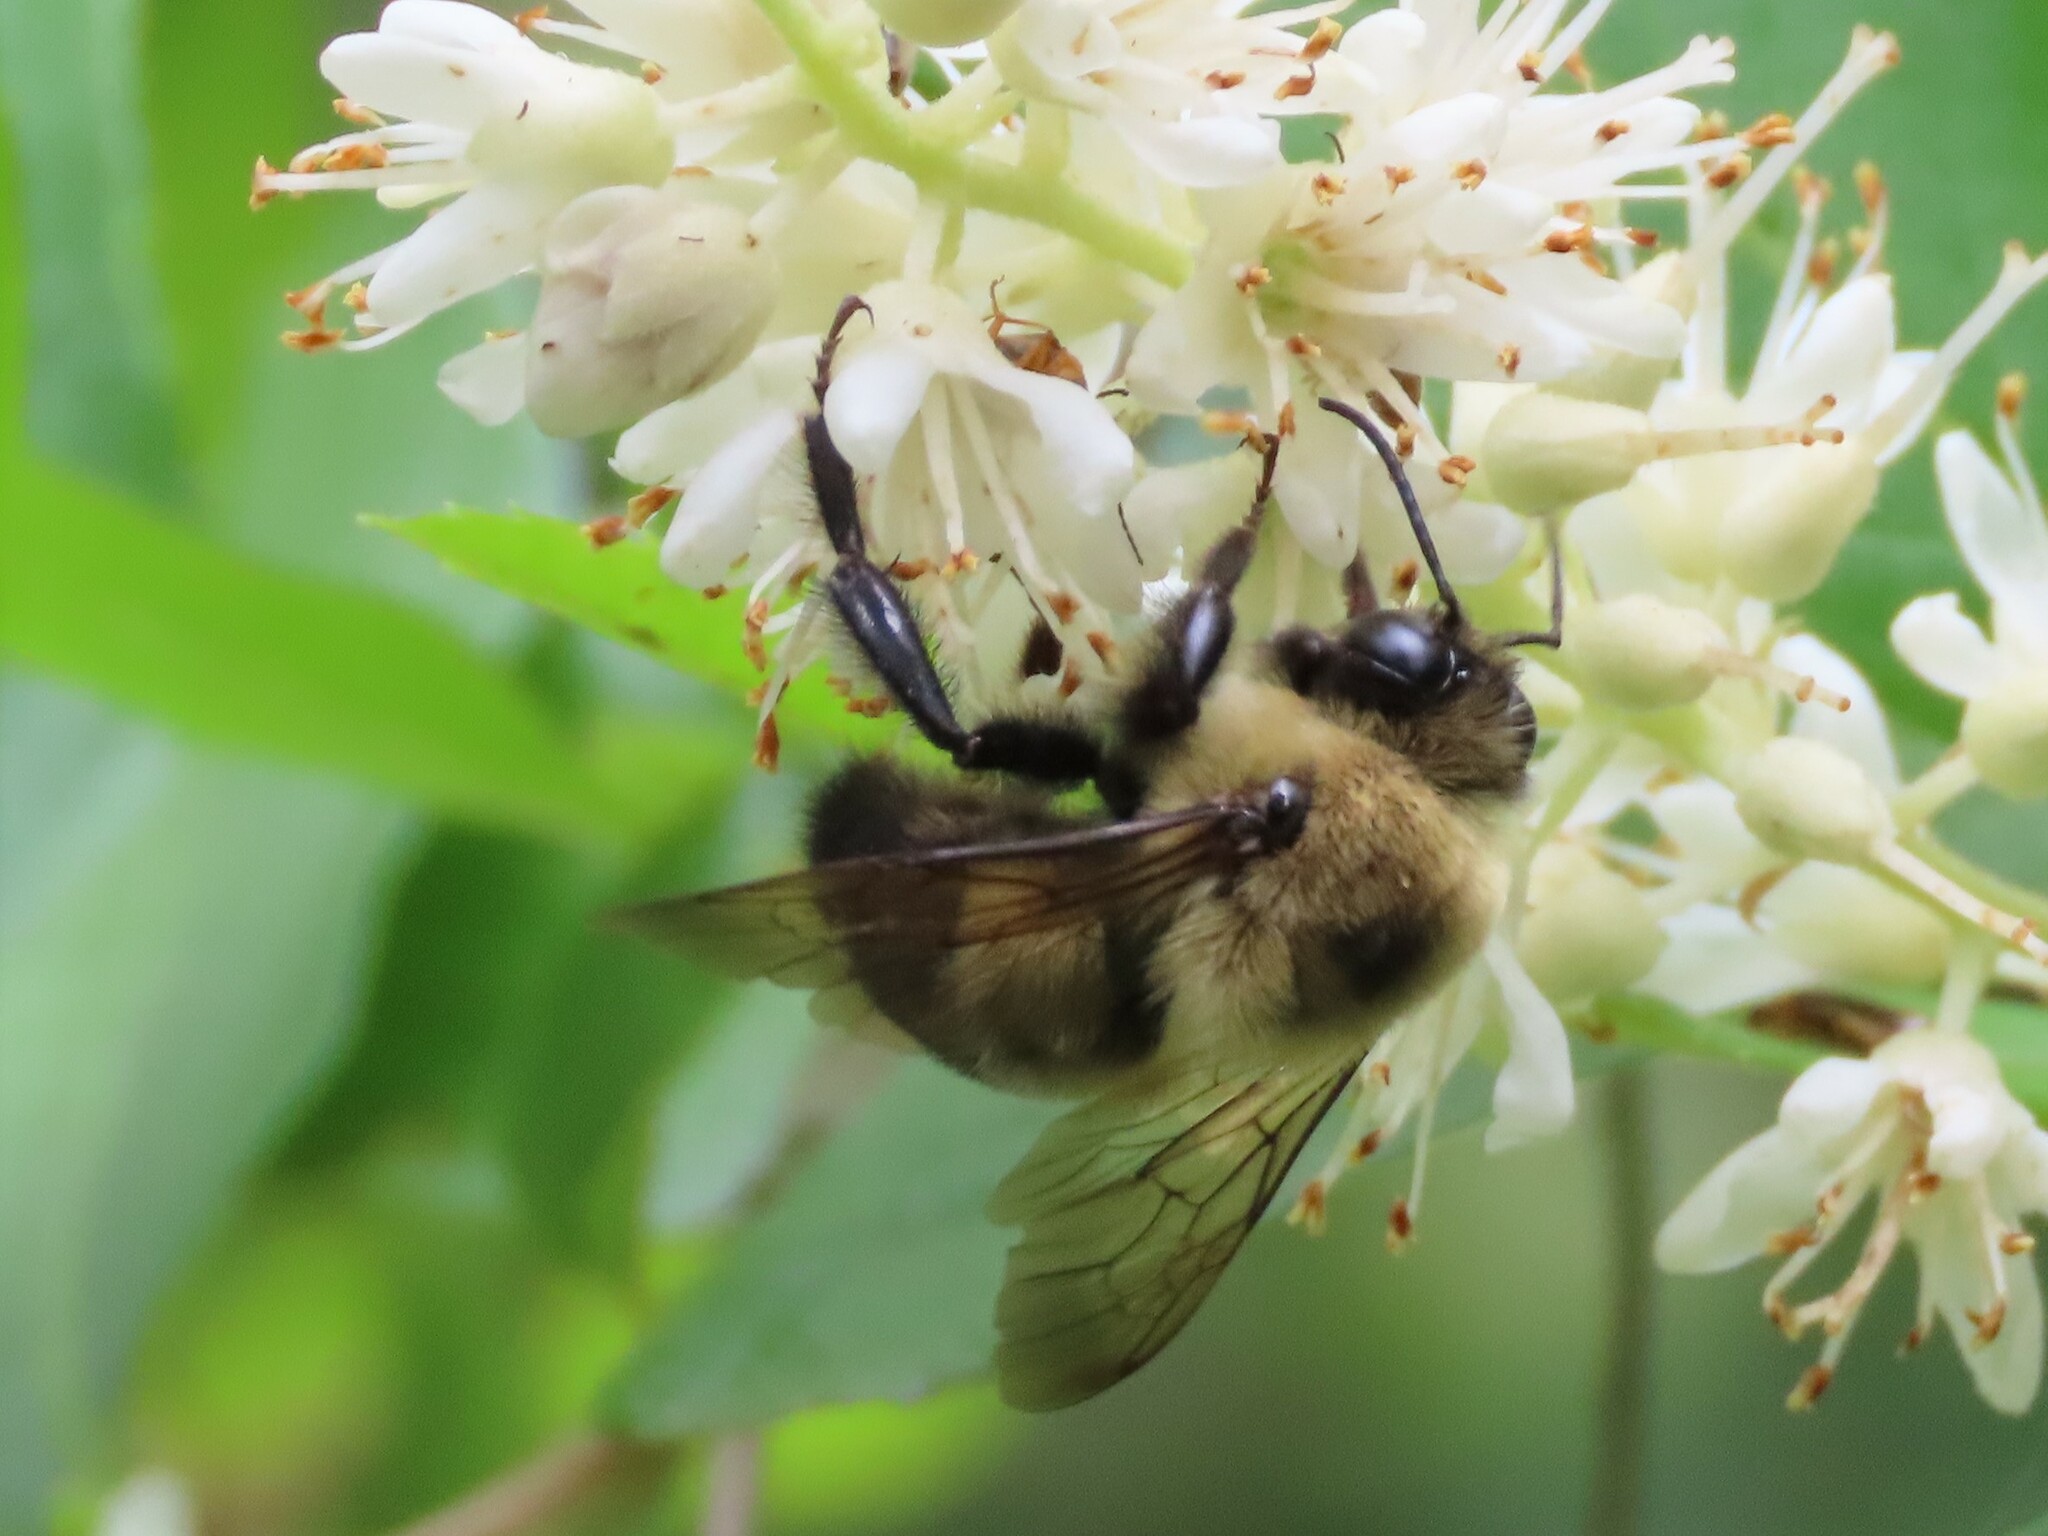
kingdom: Animalia
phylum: Arthropoda
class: Insecta
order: Hymenoptera
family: Apidae
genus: Bombus
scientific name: Bombus griseocollis
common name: Brown-belted bumble bee
